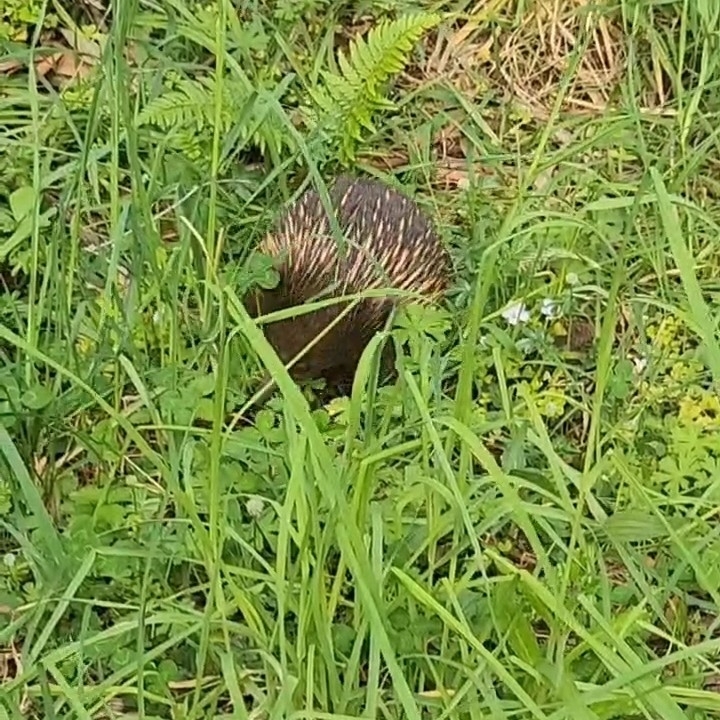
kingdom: Animalia
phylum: Chordata
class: Mammalia
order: Monotremata
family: Tachyglossidae
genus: Tachyglossus
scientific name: Tachyglossus aculeatus
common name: Short-beaked echidna
